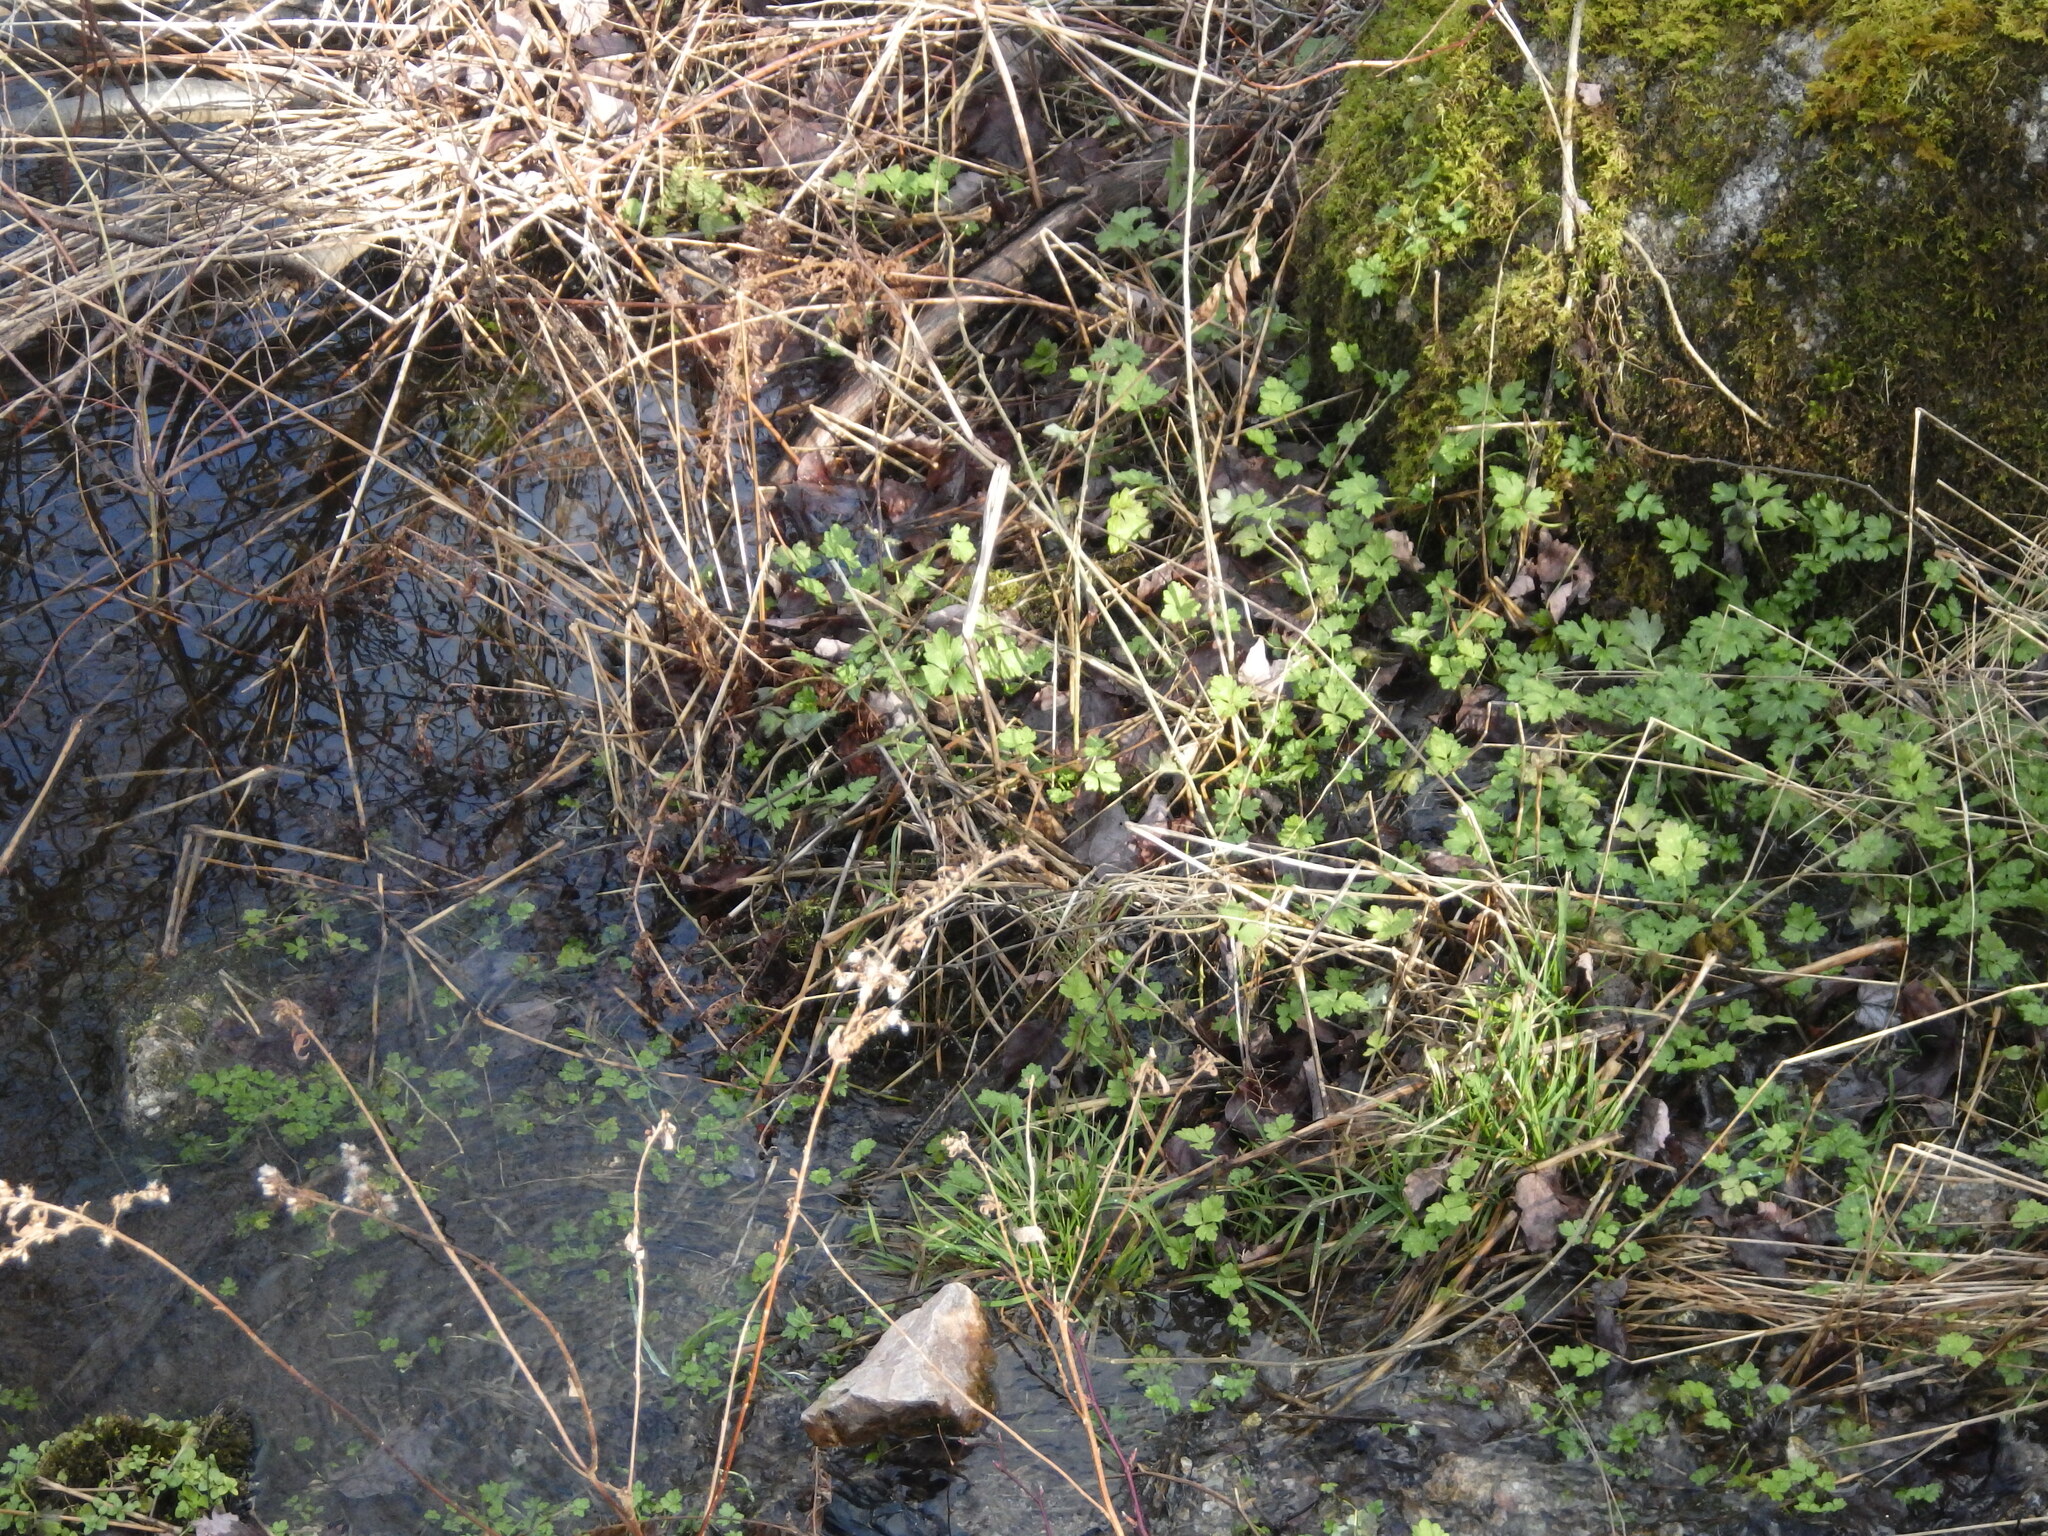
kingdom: Plantae
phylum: Tracheophyta
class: Magnoliopsida
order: Ranunculales
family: Ranunculaceae
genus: Ranunculus
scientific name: Ranunculus repens
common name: Creeping buttercup
